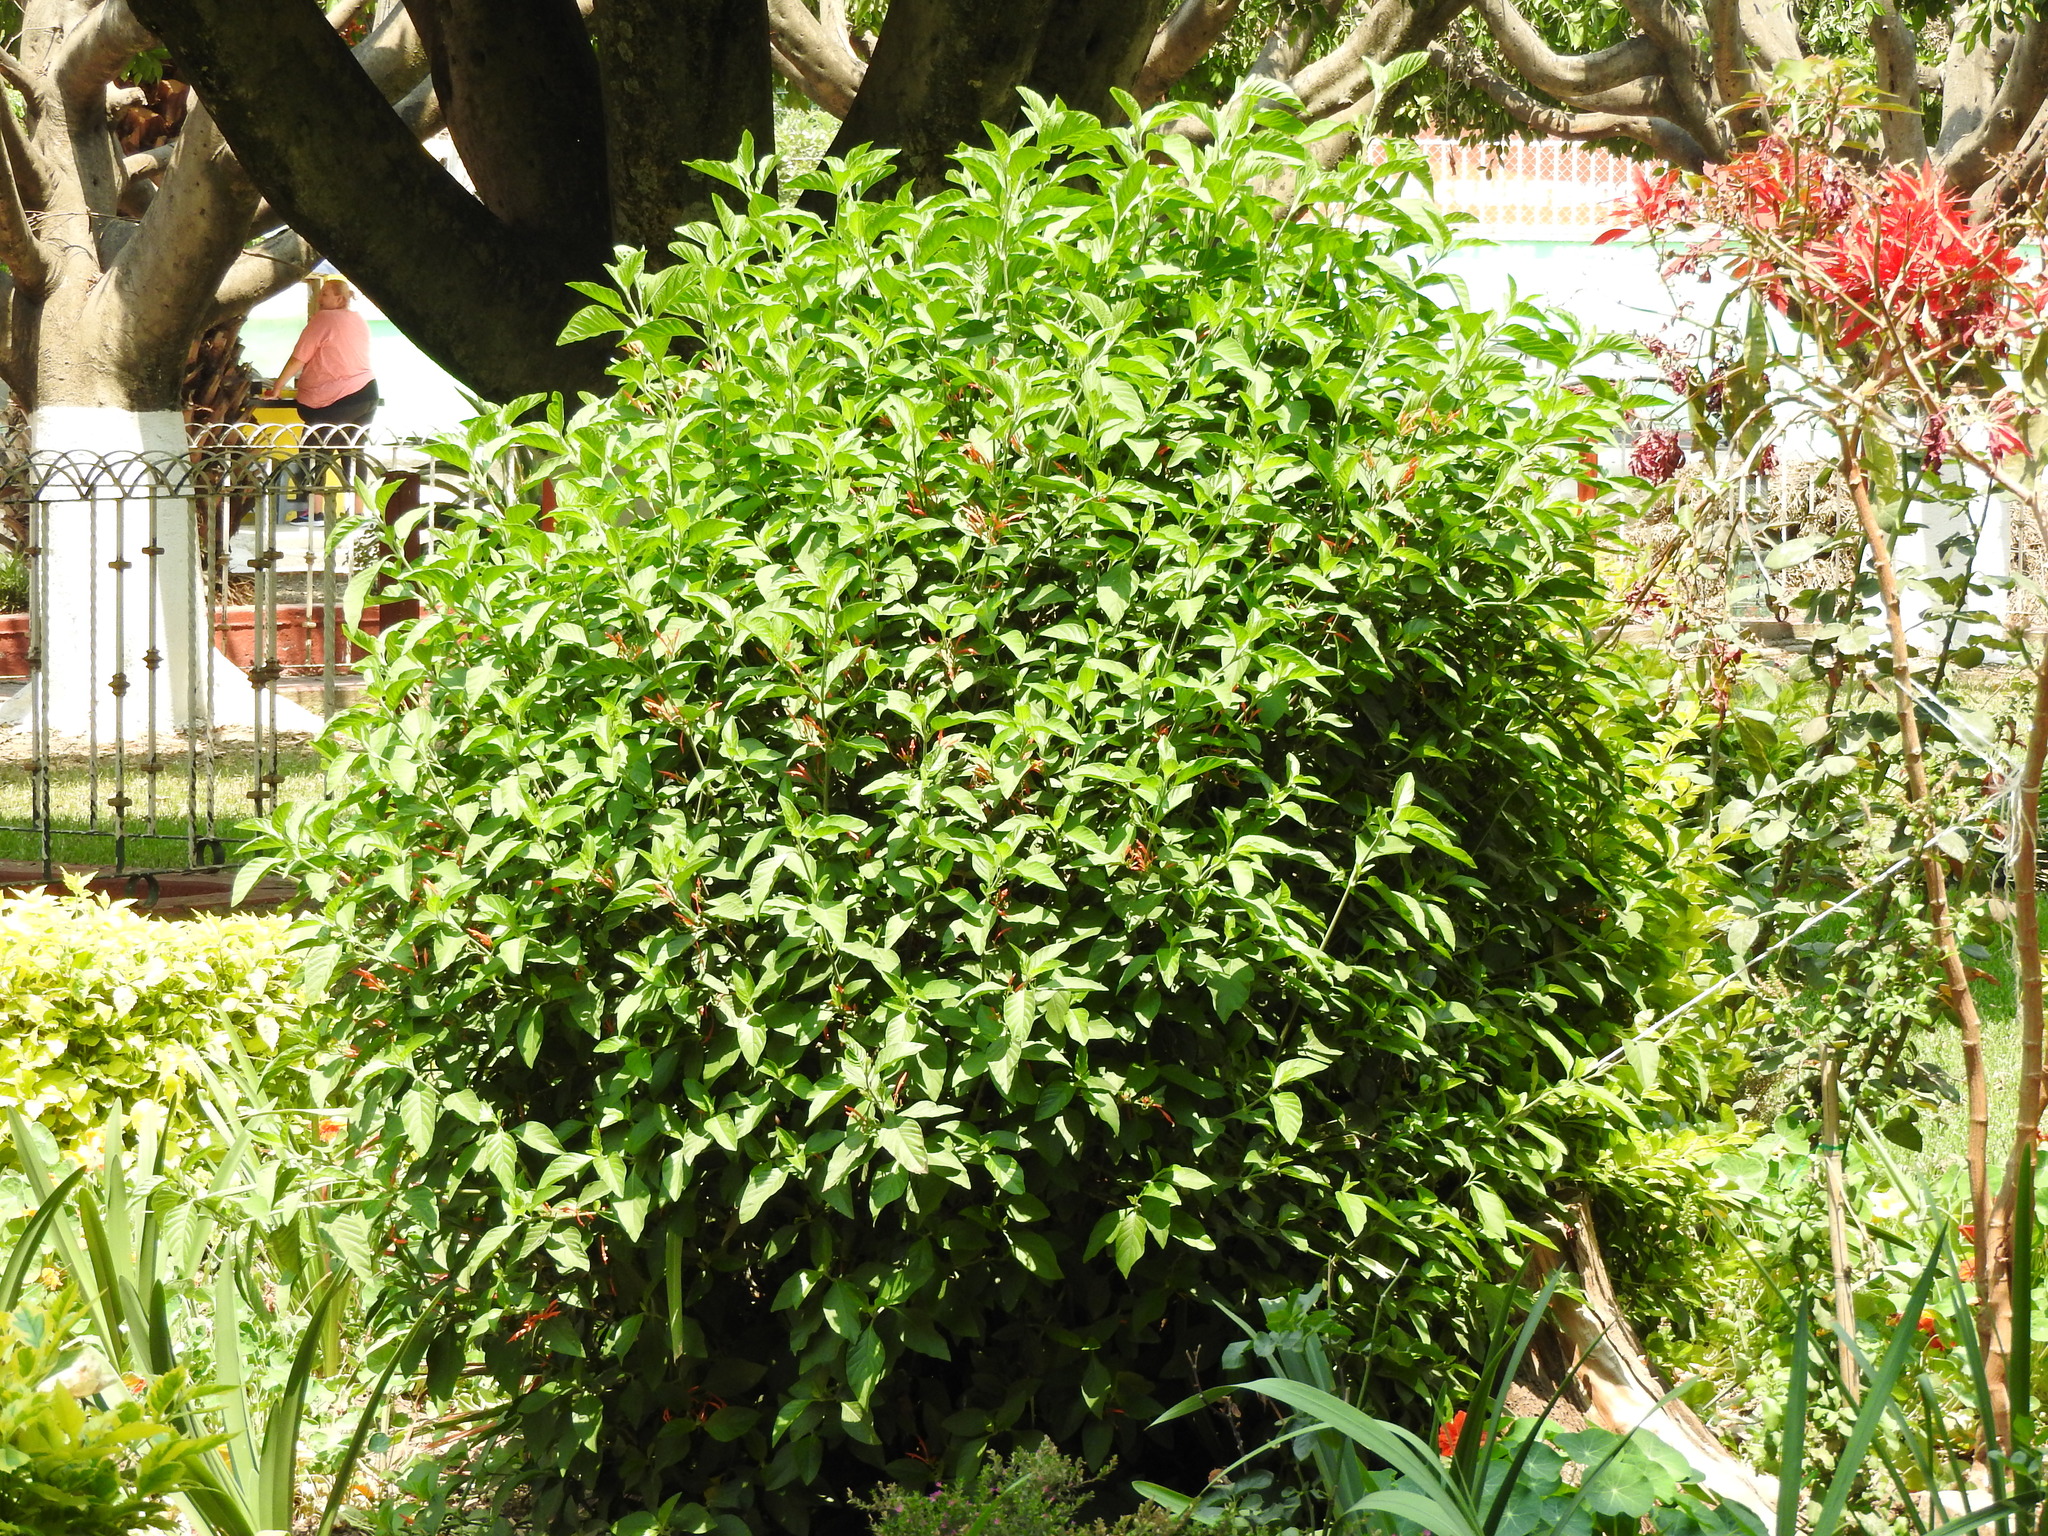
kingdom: Plantae
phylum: Tracheophyta
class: Magnoliopsida
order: Lamiales
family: Acanthaceae
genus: Justicia
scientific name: Justicia spicigera
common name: Mohintli
